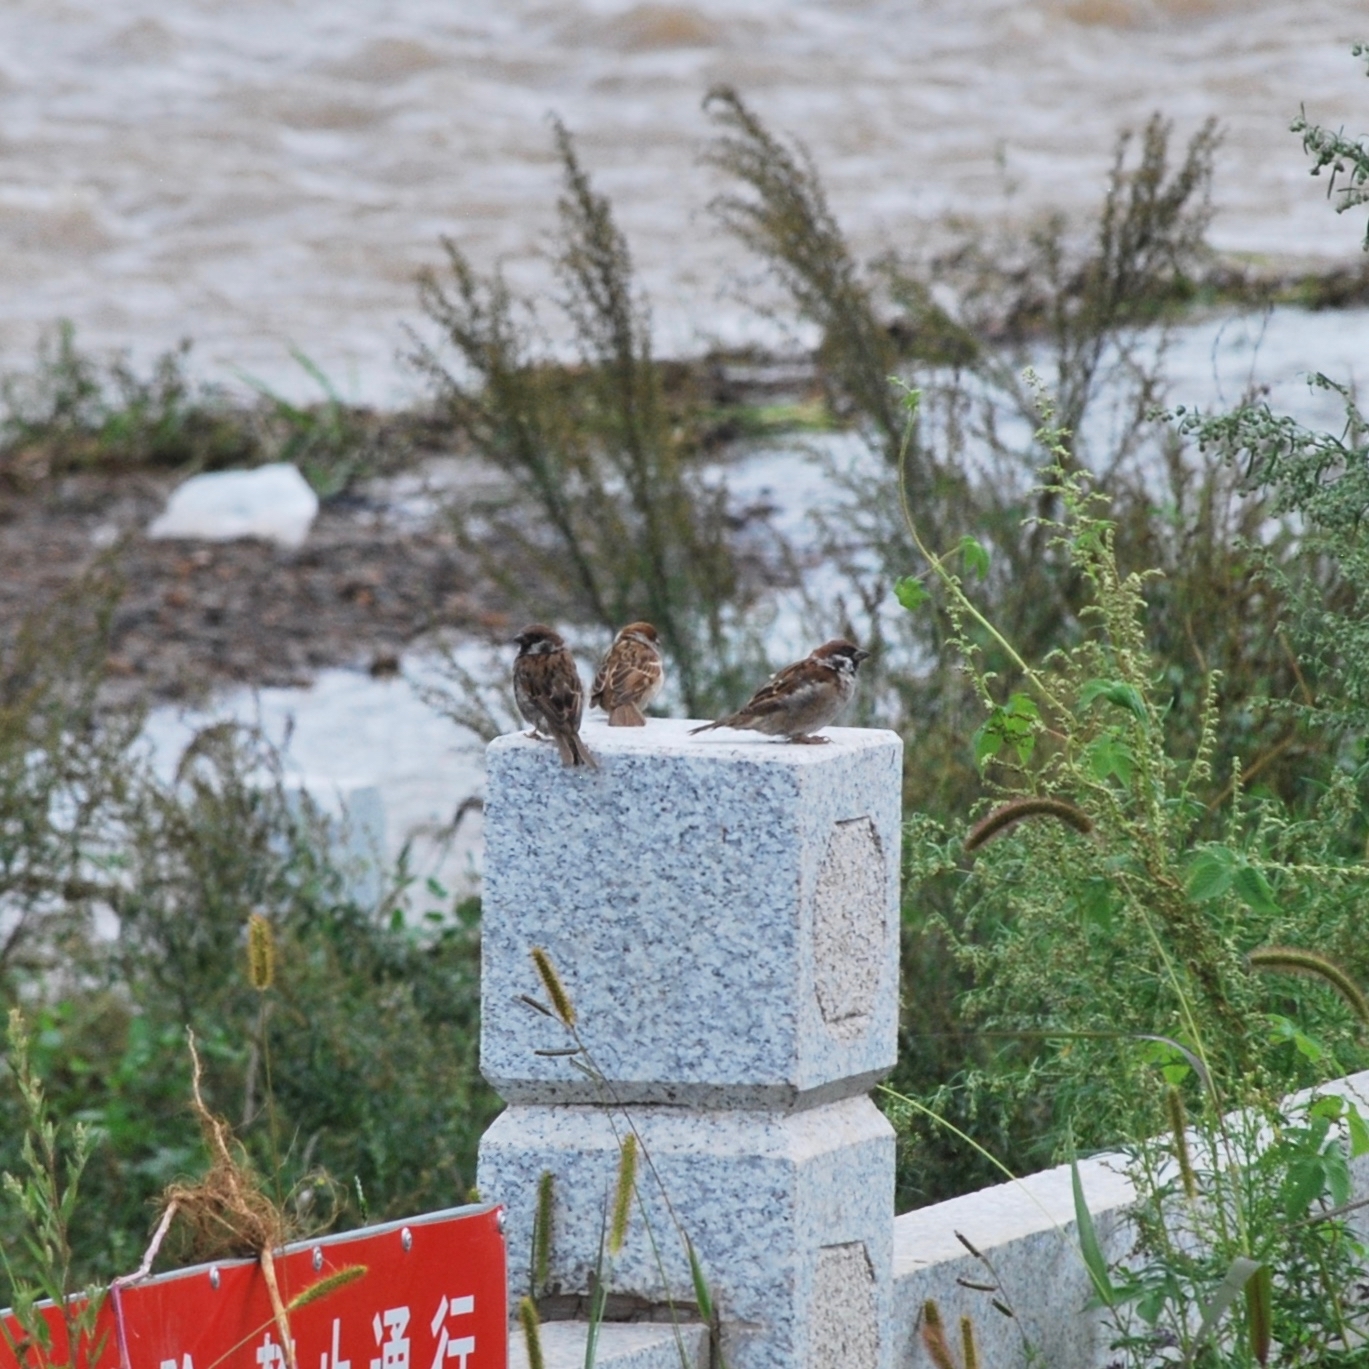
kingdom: Animalia
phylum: Chordata
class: Aves
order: Passeriformes
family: Passeridae
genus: Passer
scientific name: Passer montanus
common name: Eurasian tree sparrow
